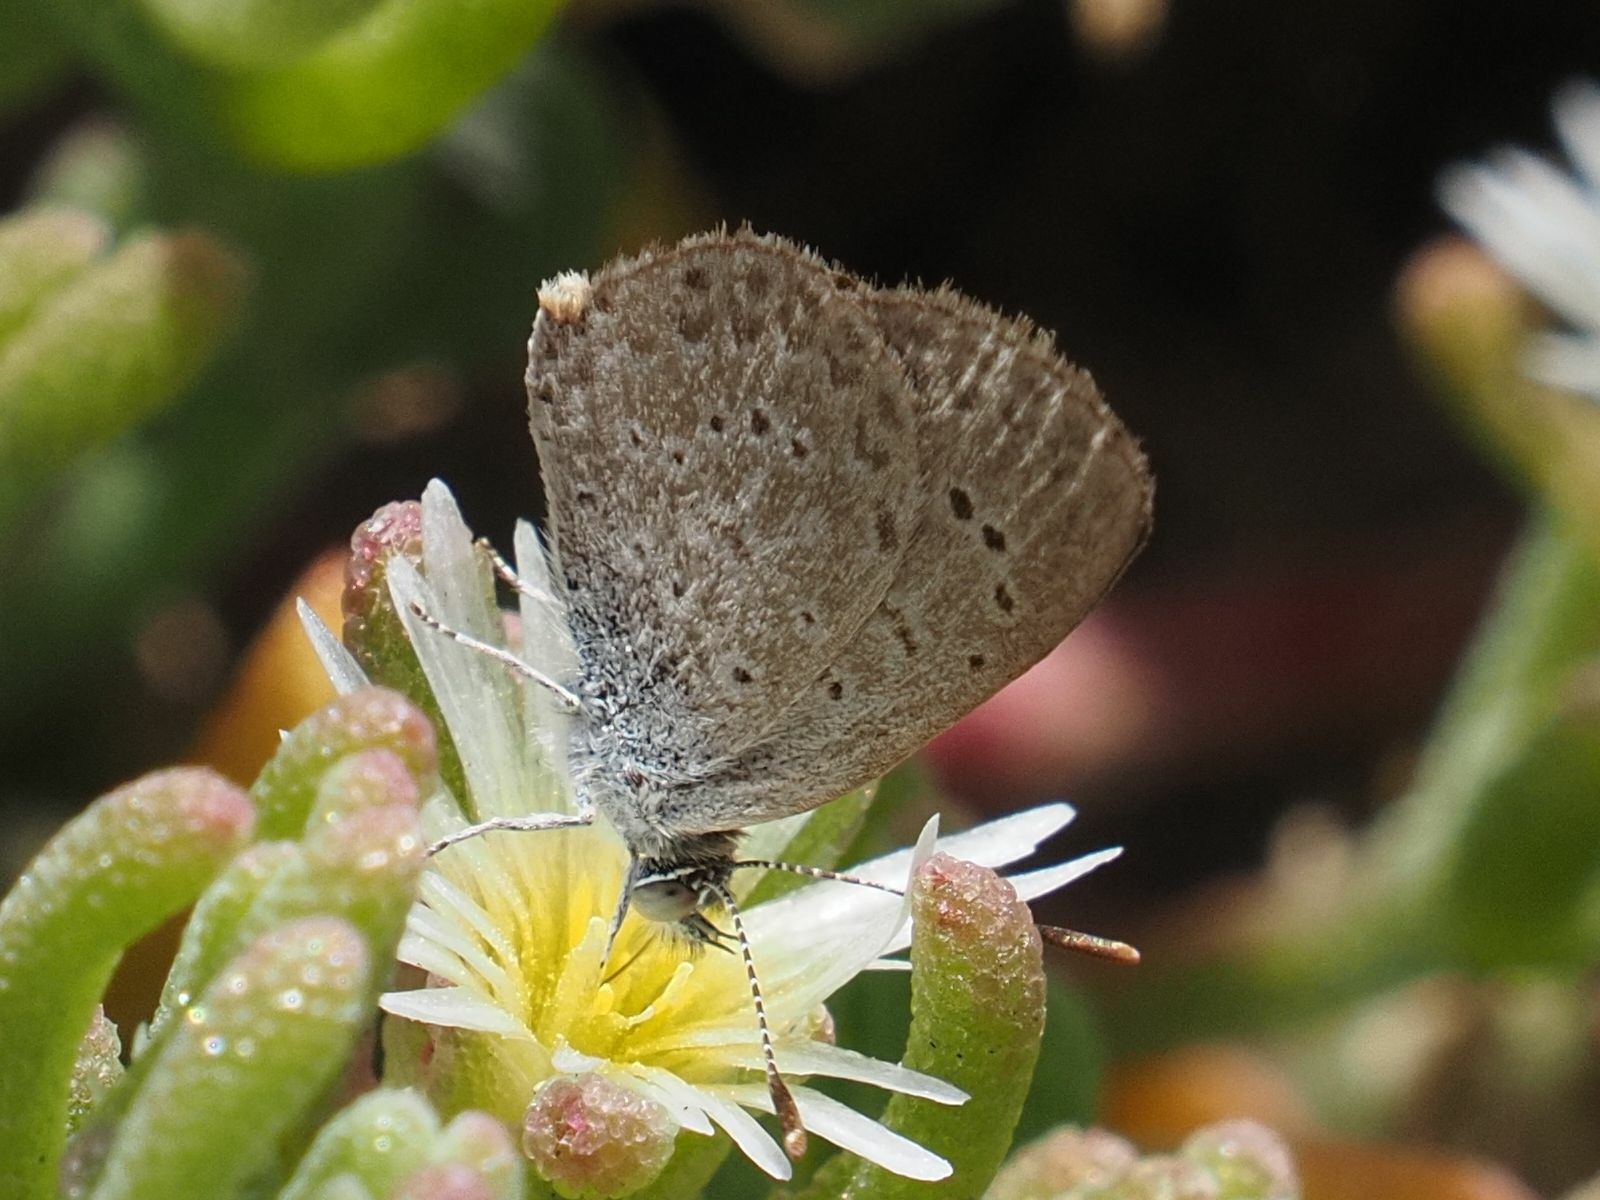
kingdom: Animalia
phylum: Arthropoda
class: Insecta
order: Lepidoptera
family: Lycaenidae
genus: Zizeeria
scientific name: Zizeeria knysna
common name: African grass blue
